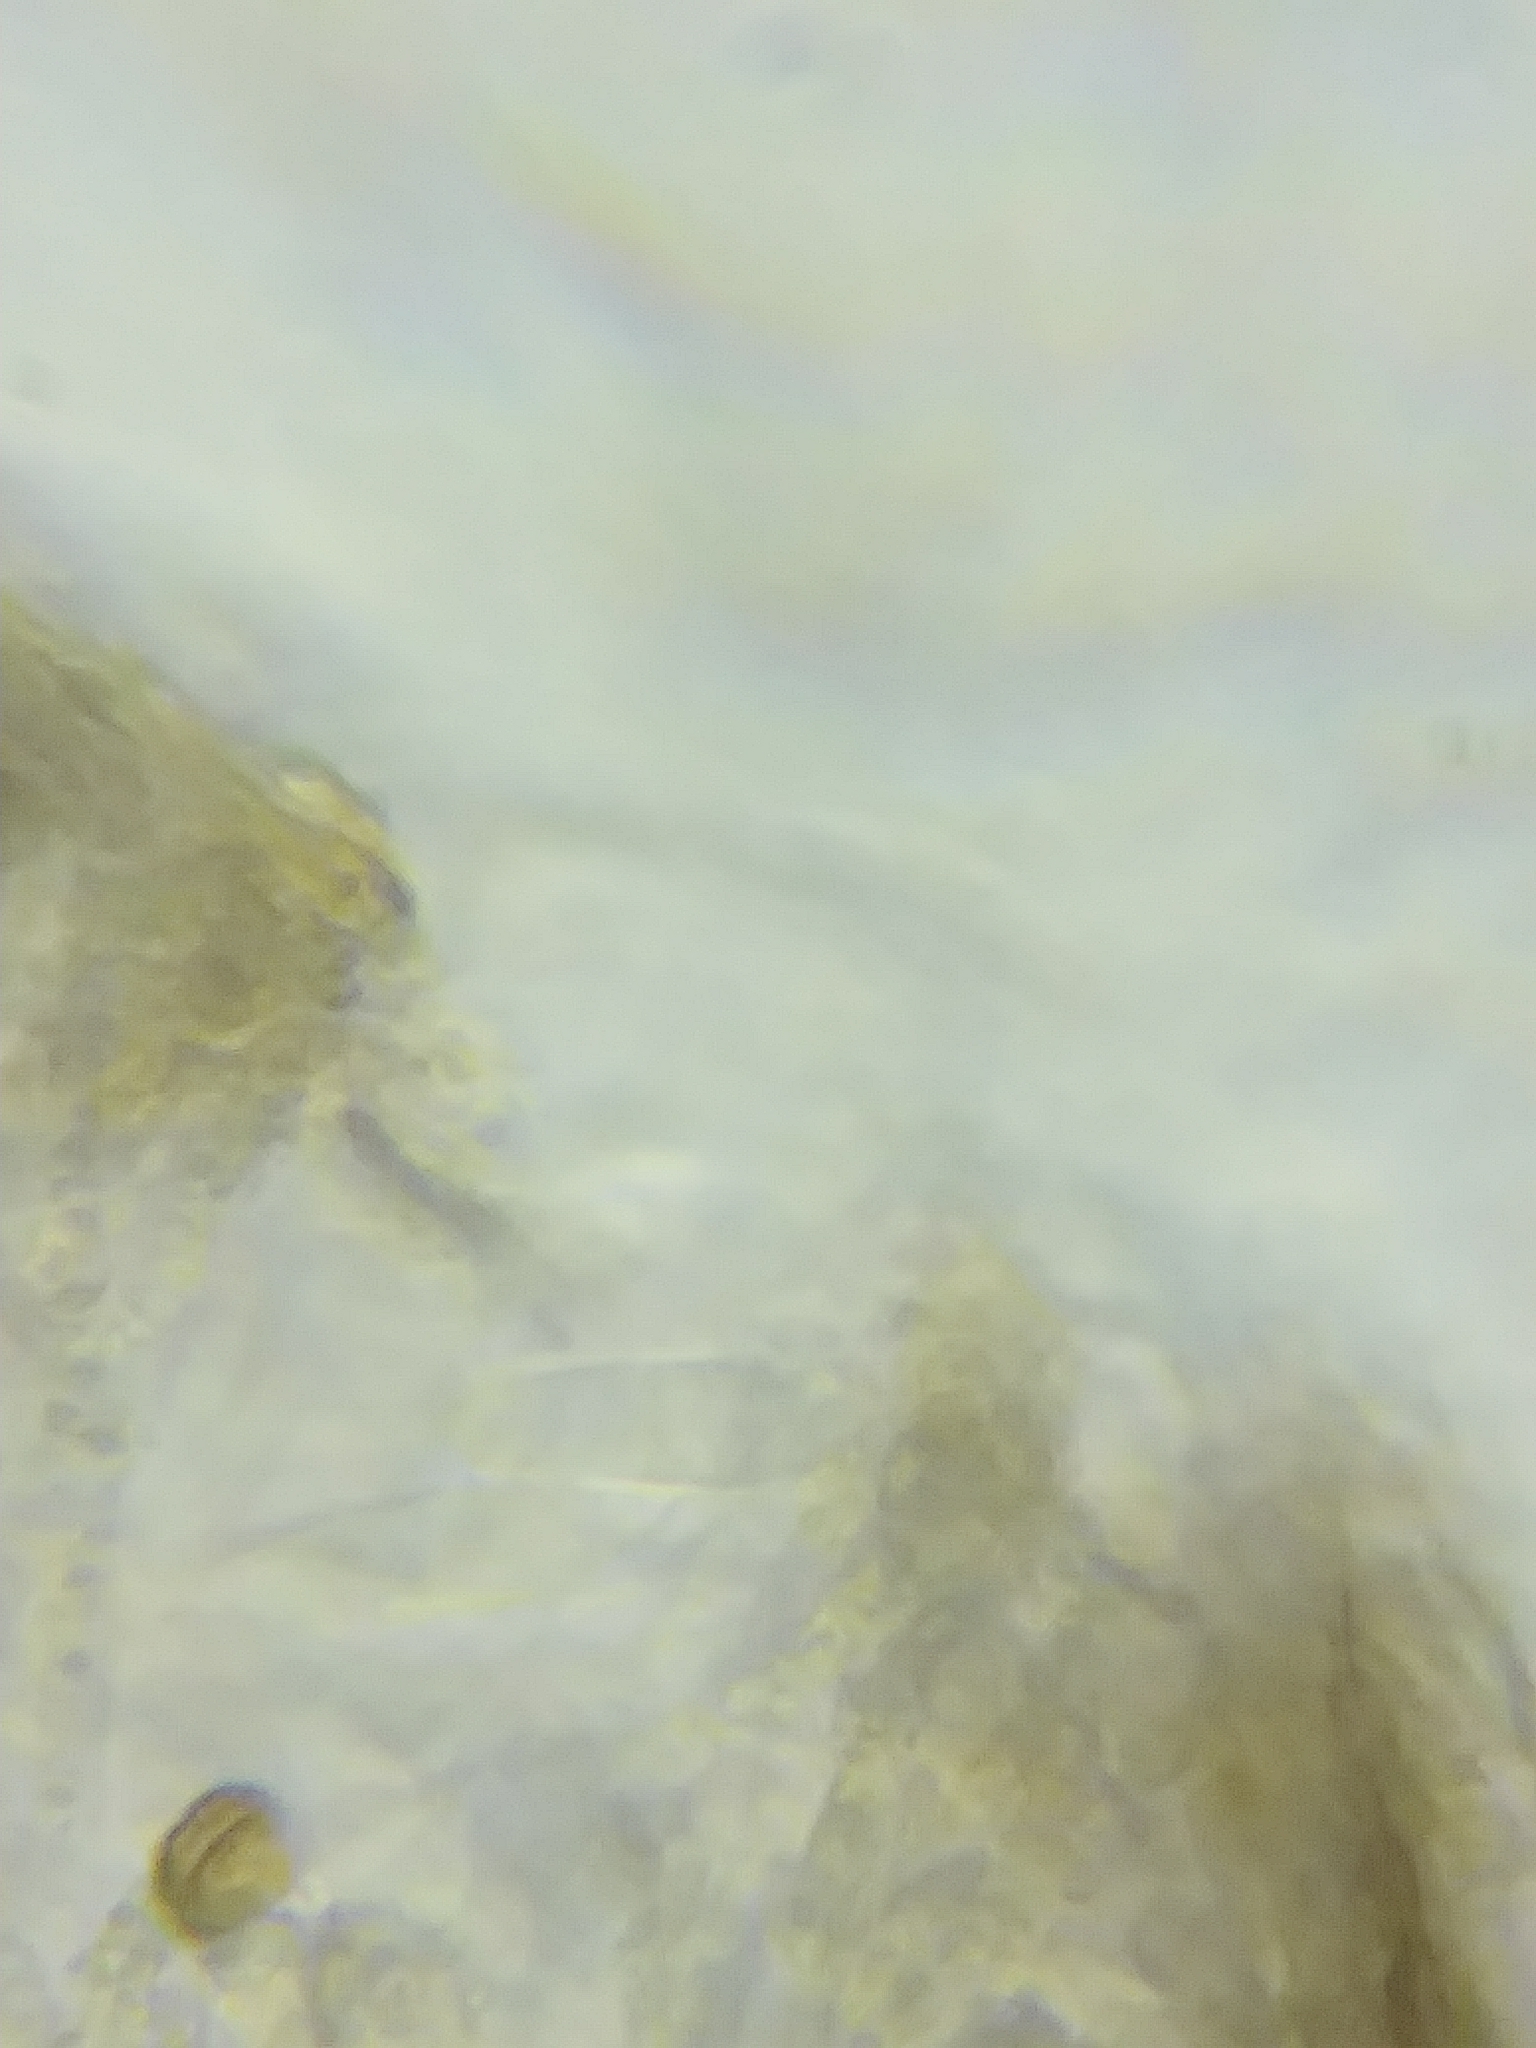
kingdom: Fungi
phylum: Ascomycota
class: Leotiomycetes
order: Helotiales
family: Tricladiaceae
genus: Cudoniella
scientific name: Cudoniella clavus
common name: Spring pin
